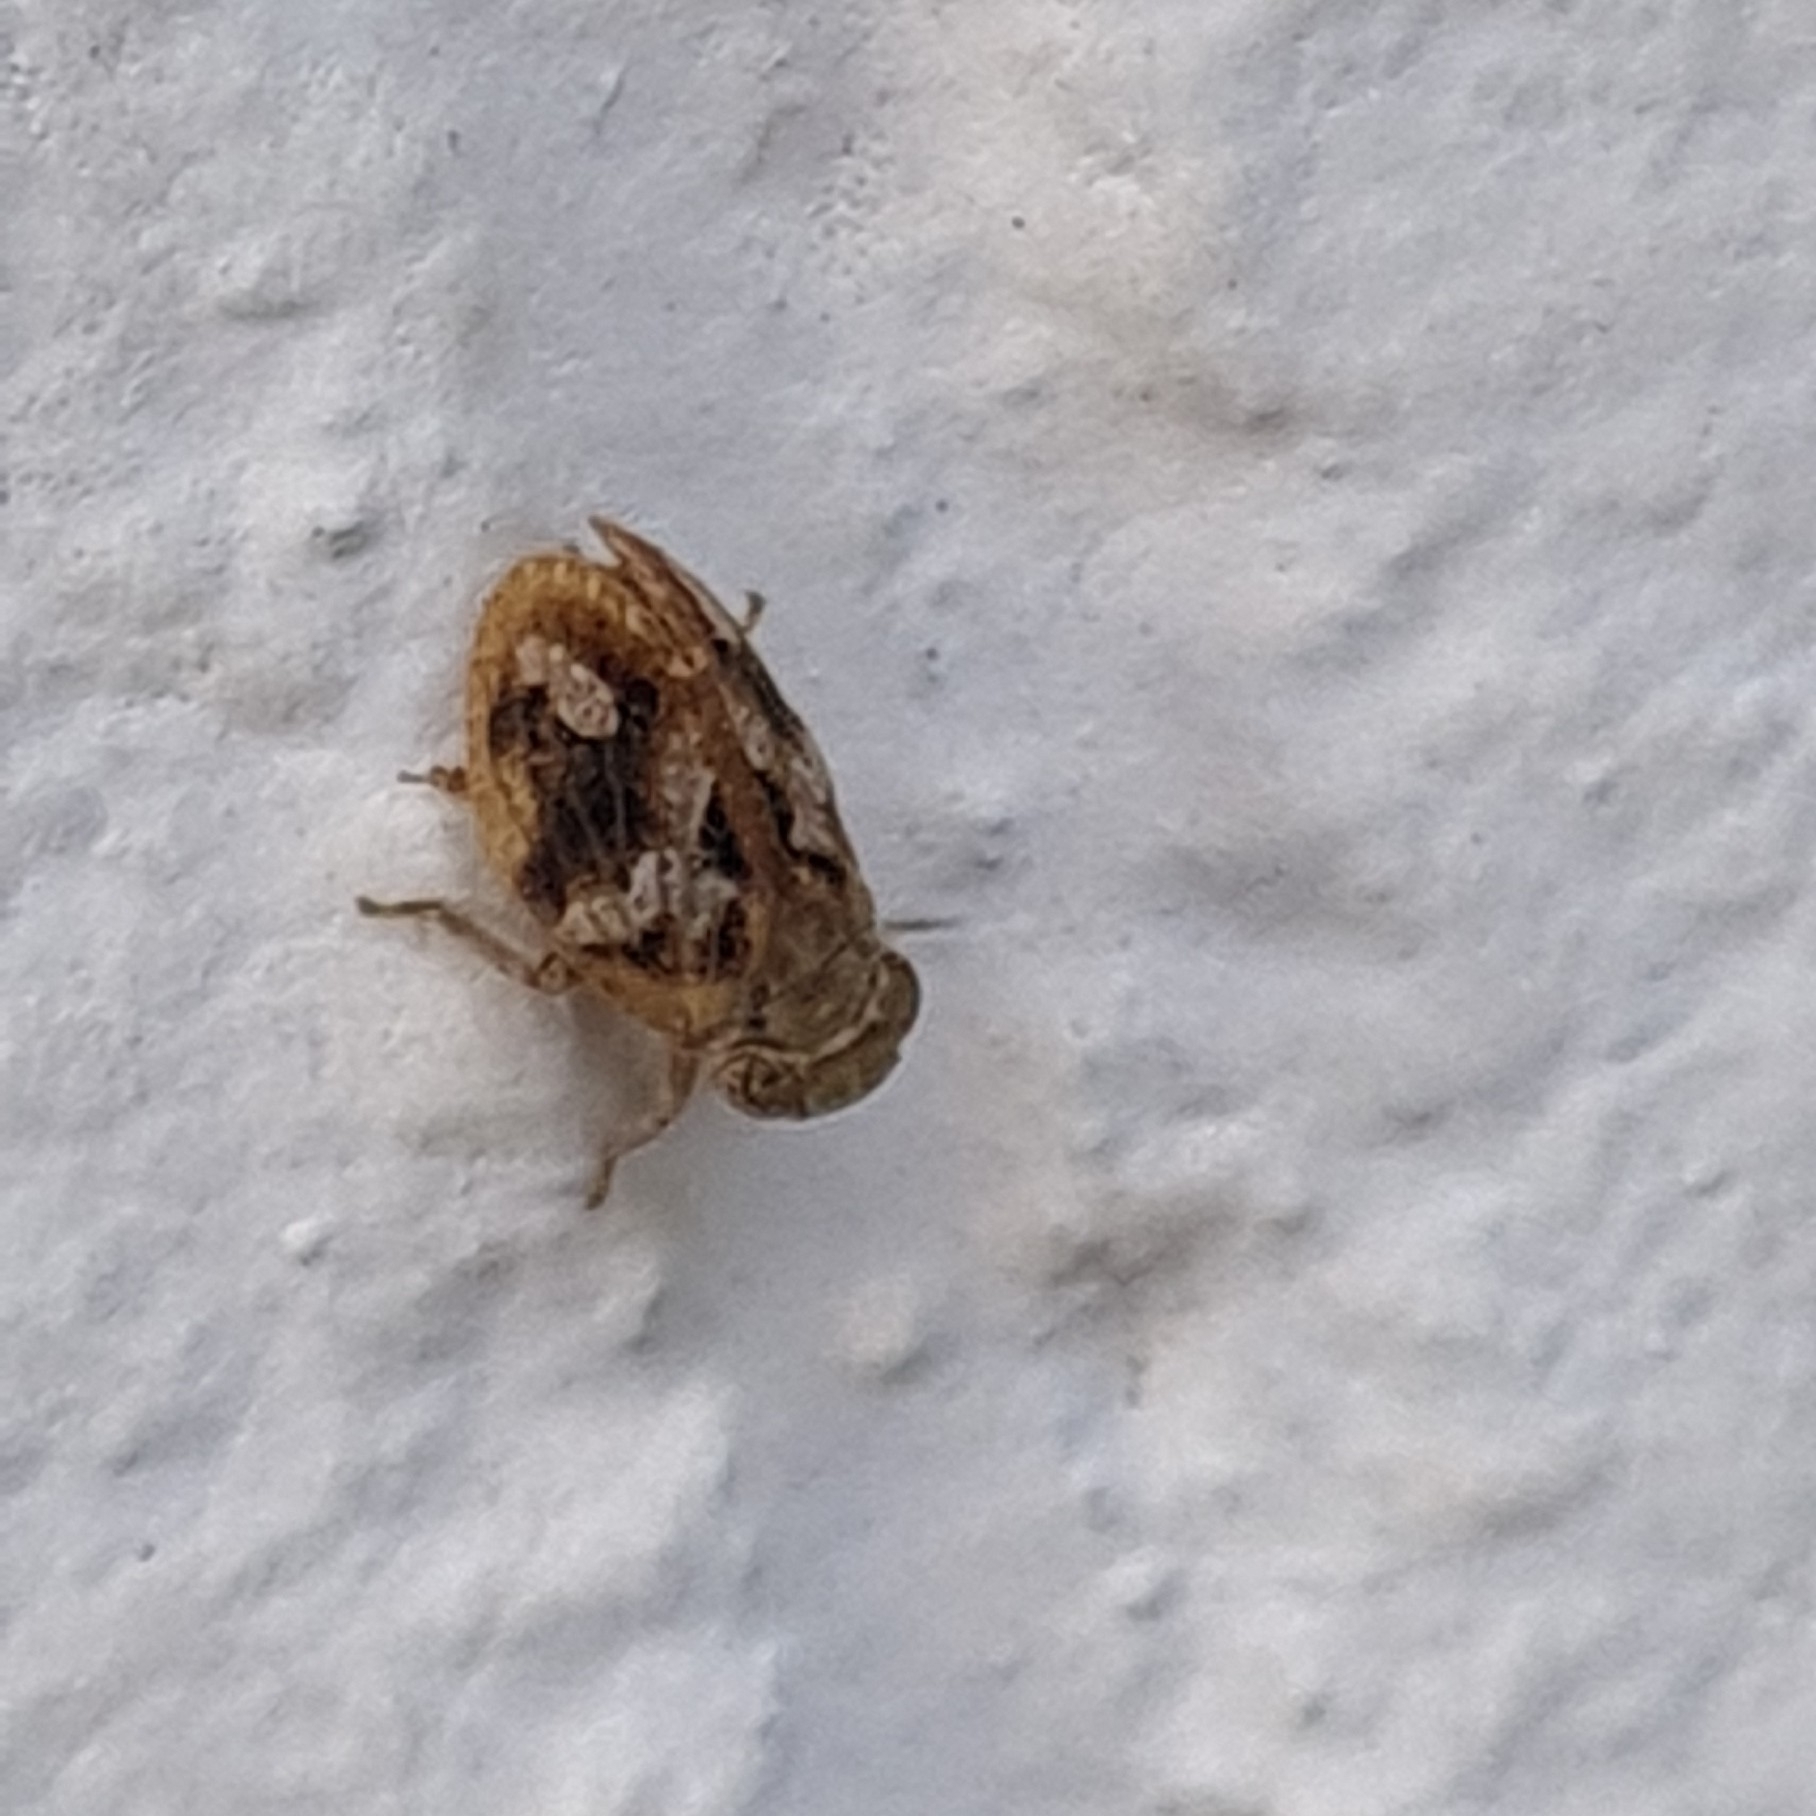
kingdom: Animalia
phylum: Arthropoda
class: Insecta
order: Hemiptera
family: Issidae
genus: Latilica
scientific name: Latilica maculipes
